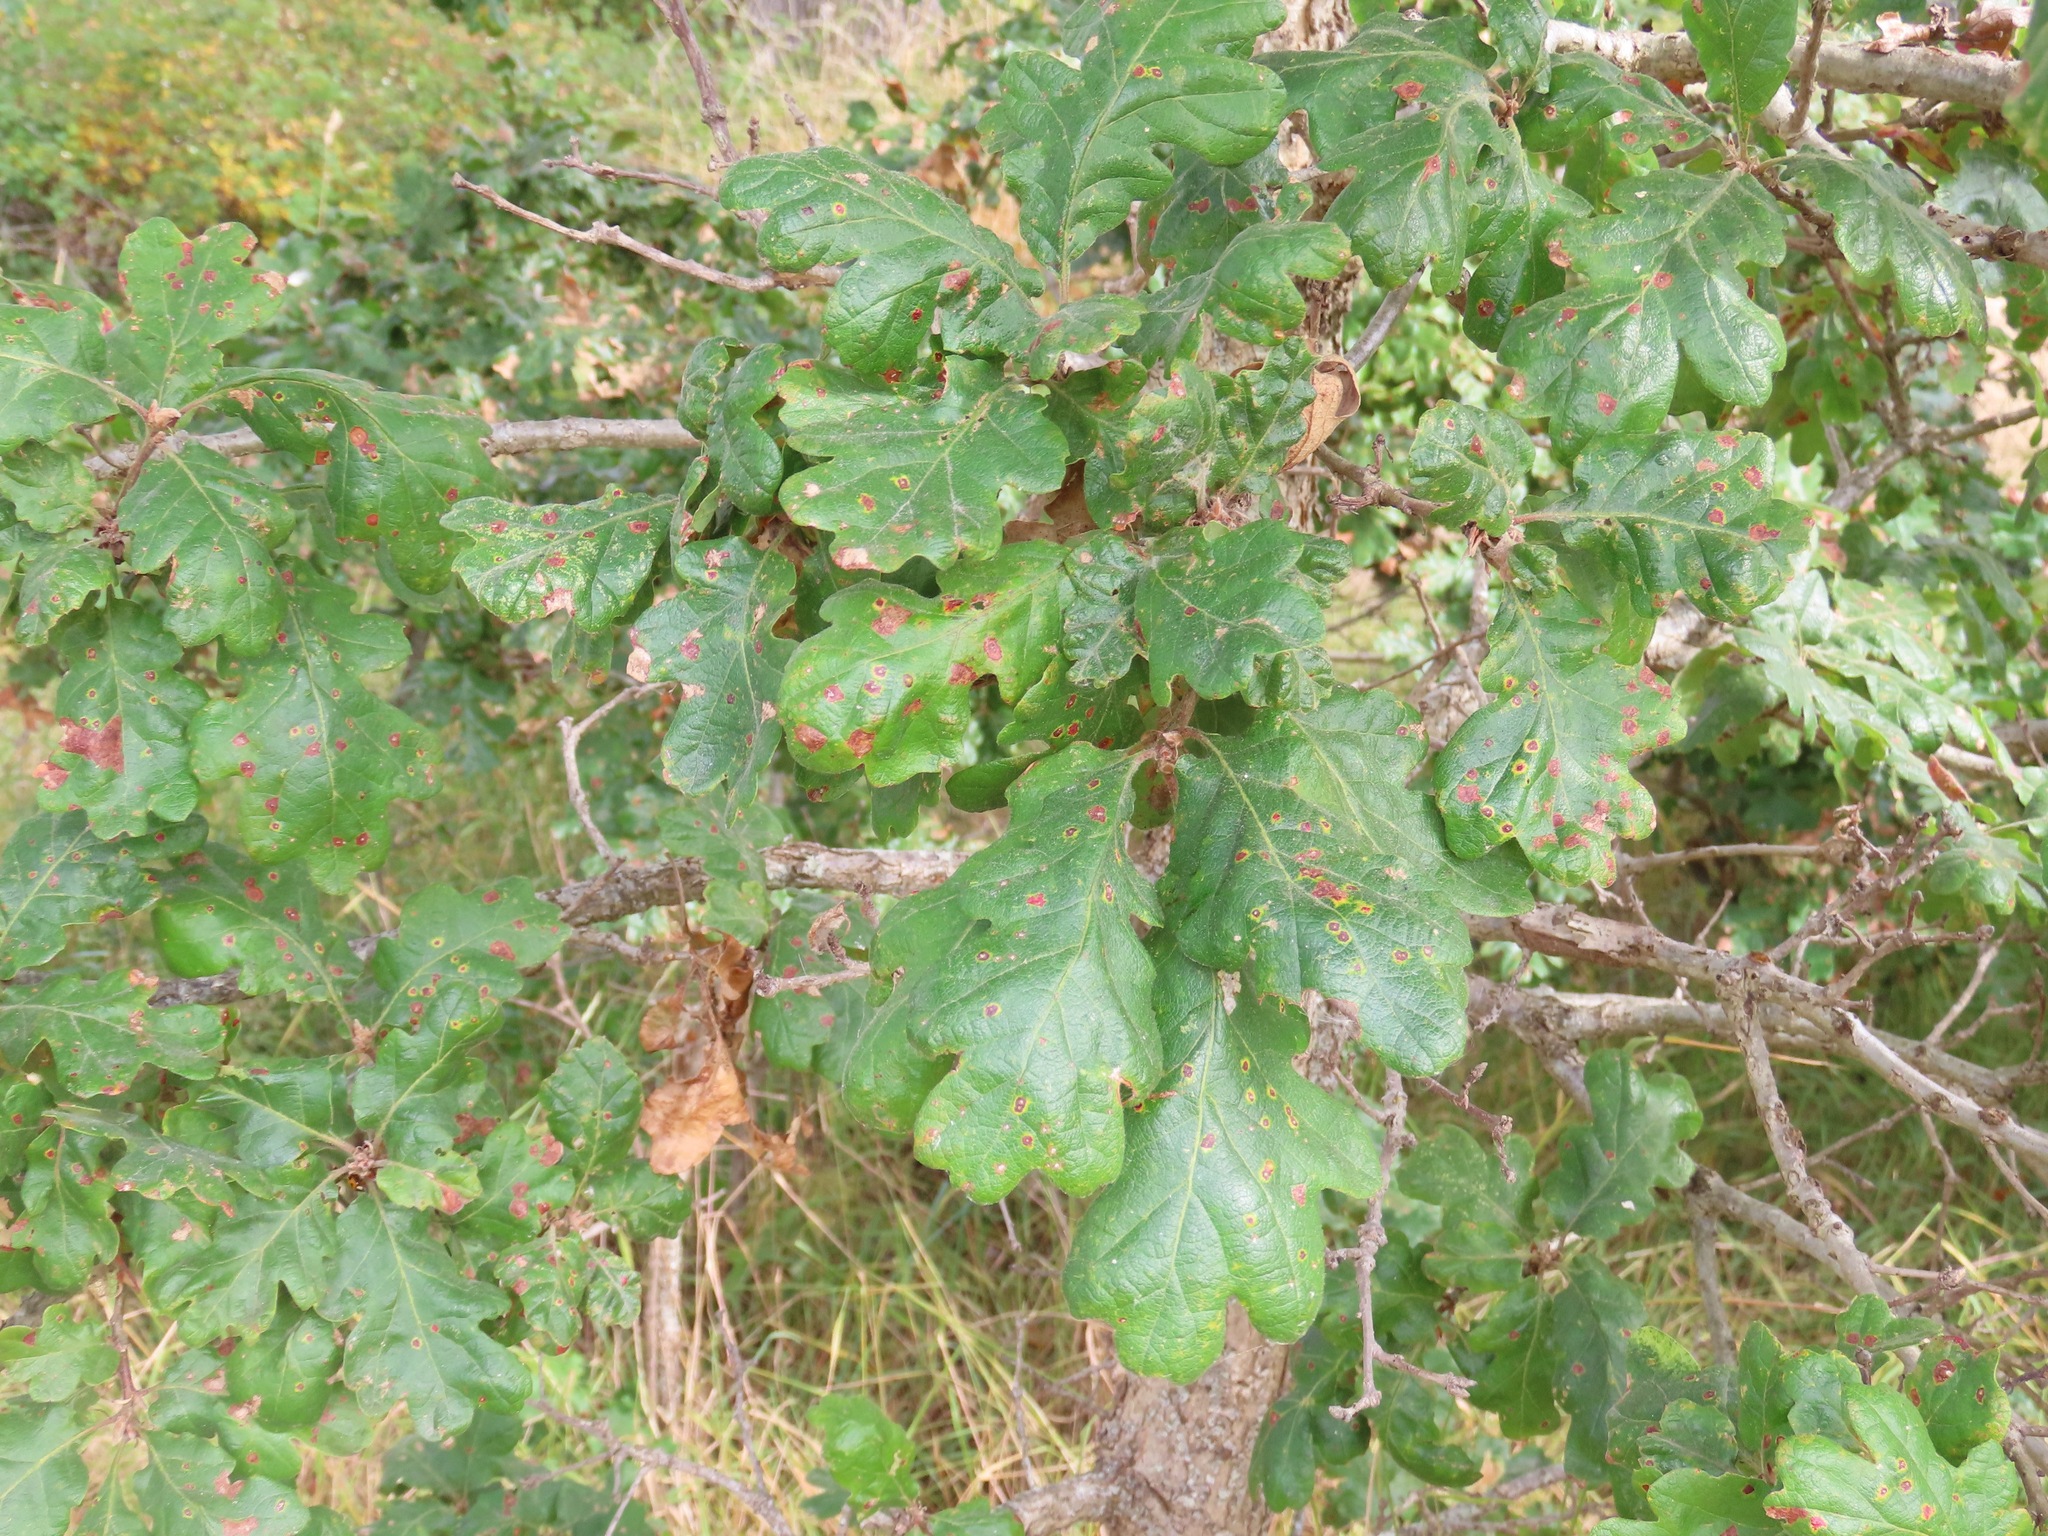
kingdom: Plantae
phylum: Tracheophyta
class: Magnoliopsida
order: Fagales
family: Fagaceae
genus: Quercus
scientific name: Quercus garryana
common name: Garry oak
